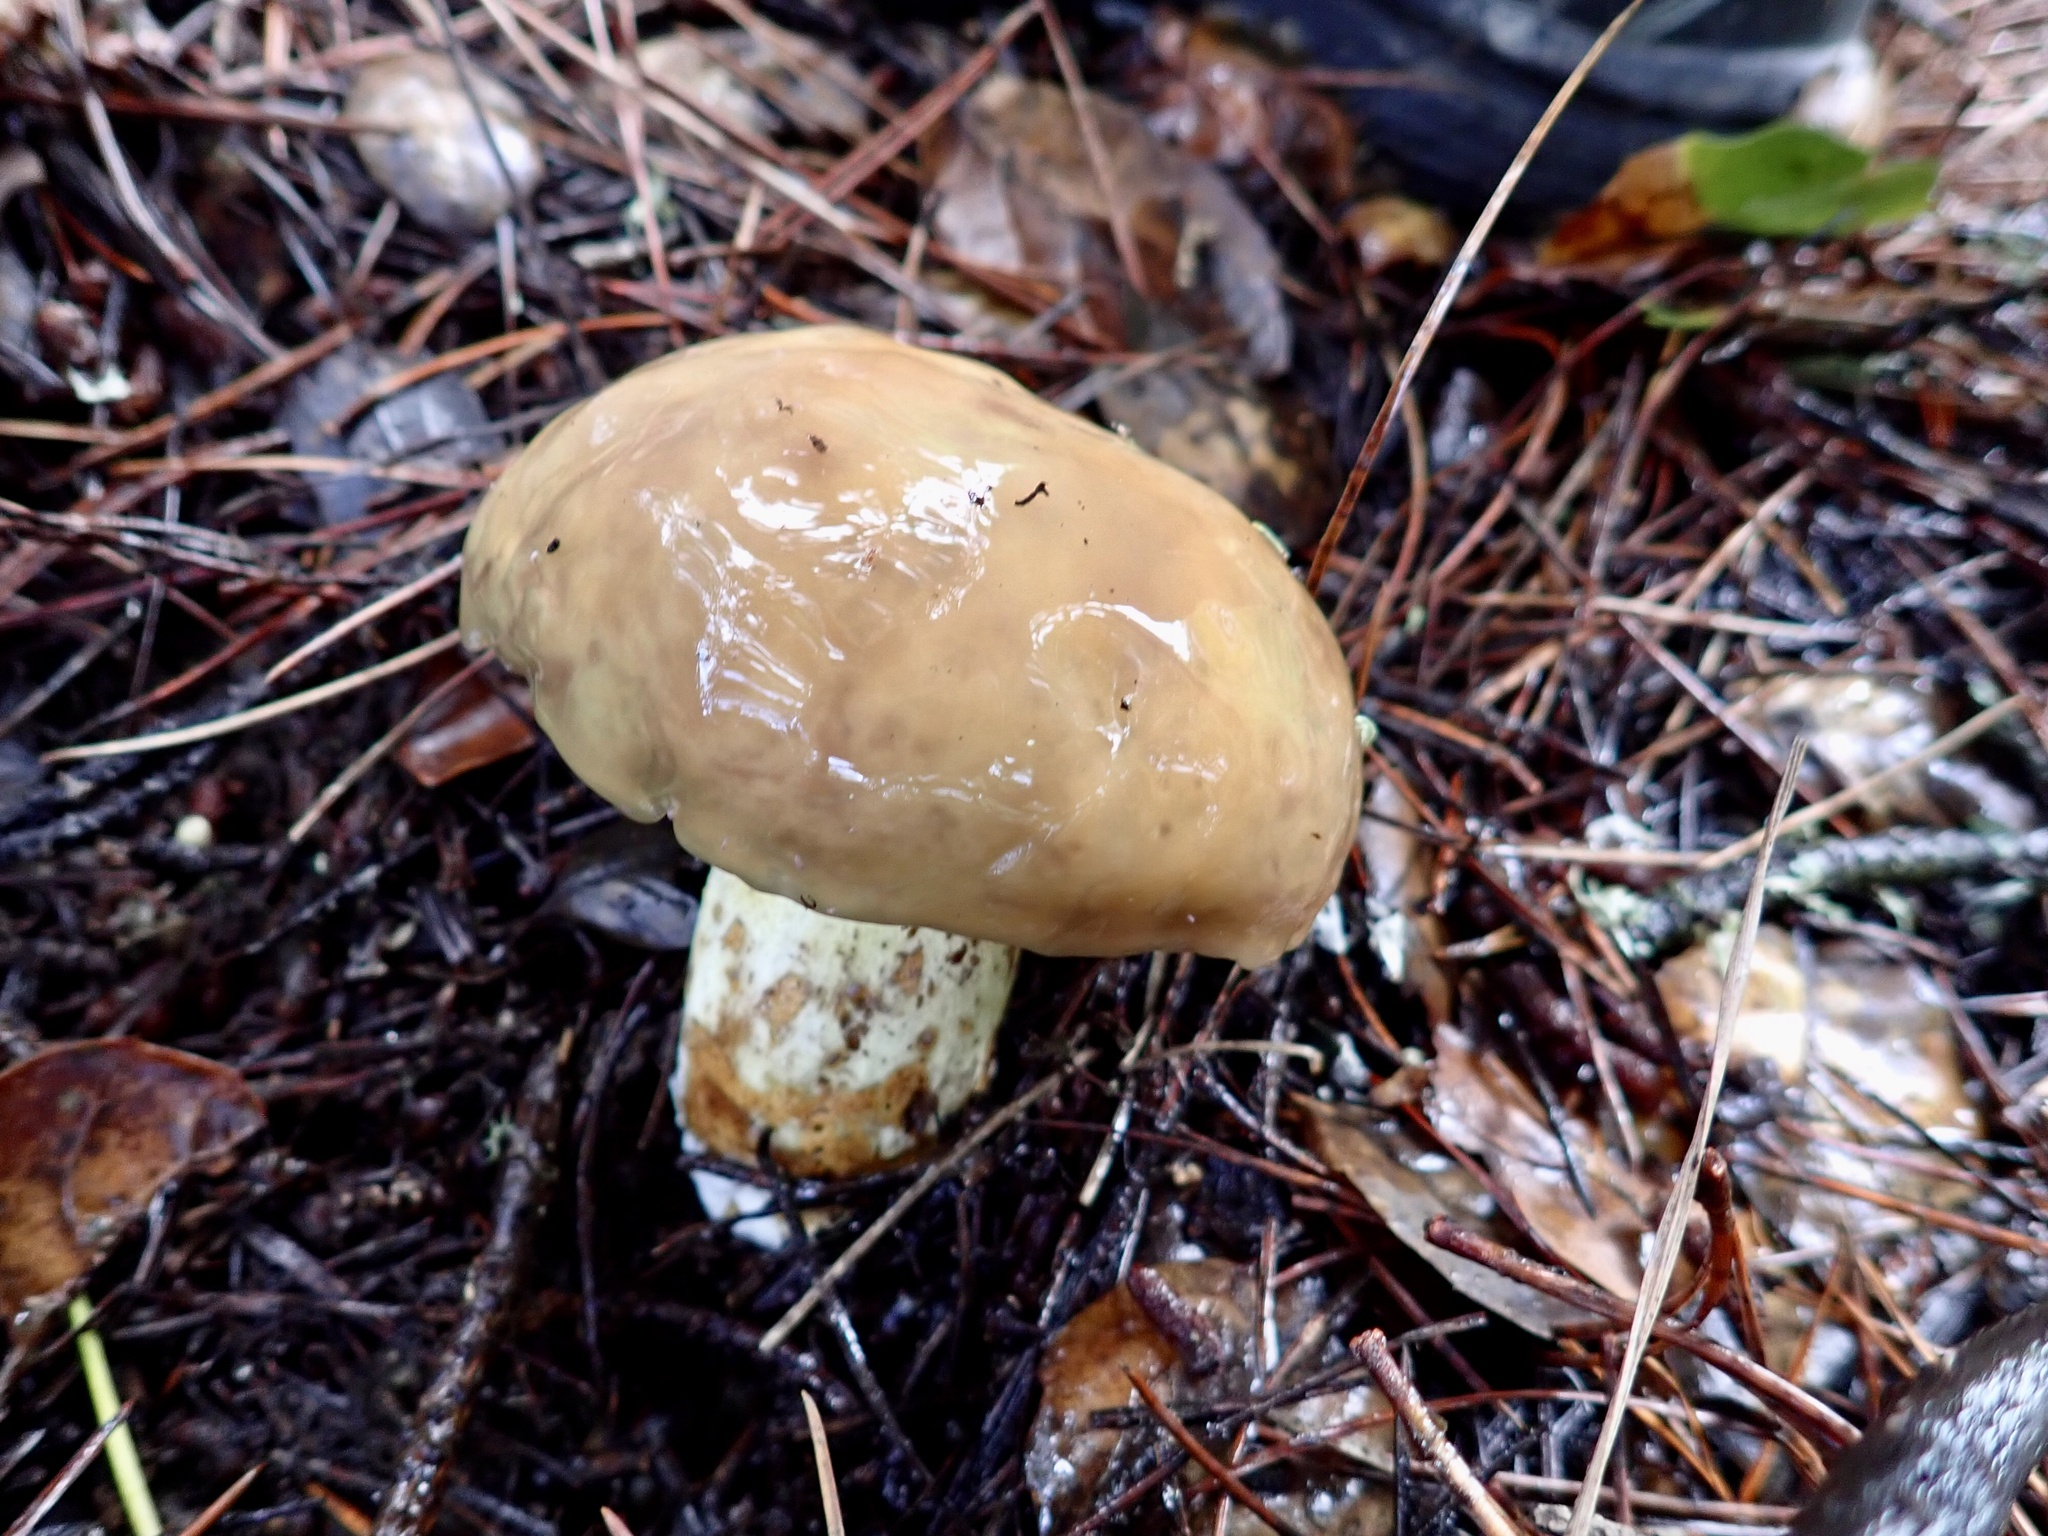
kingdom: Fungi
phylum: Basidiomycota
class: Agaricomycetes
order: Boletales
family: Suillaceae
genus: Suillus
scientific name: Suillus pungens
